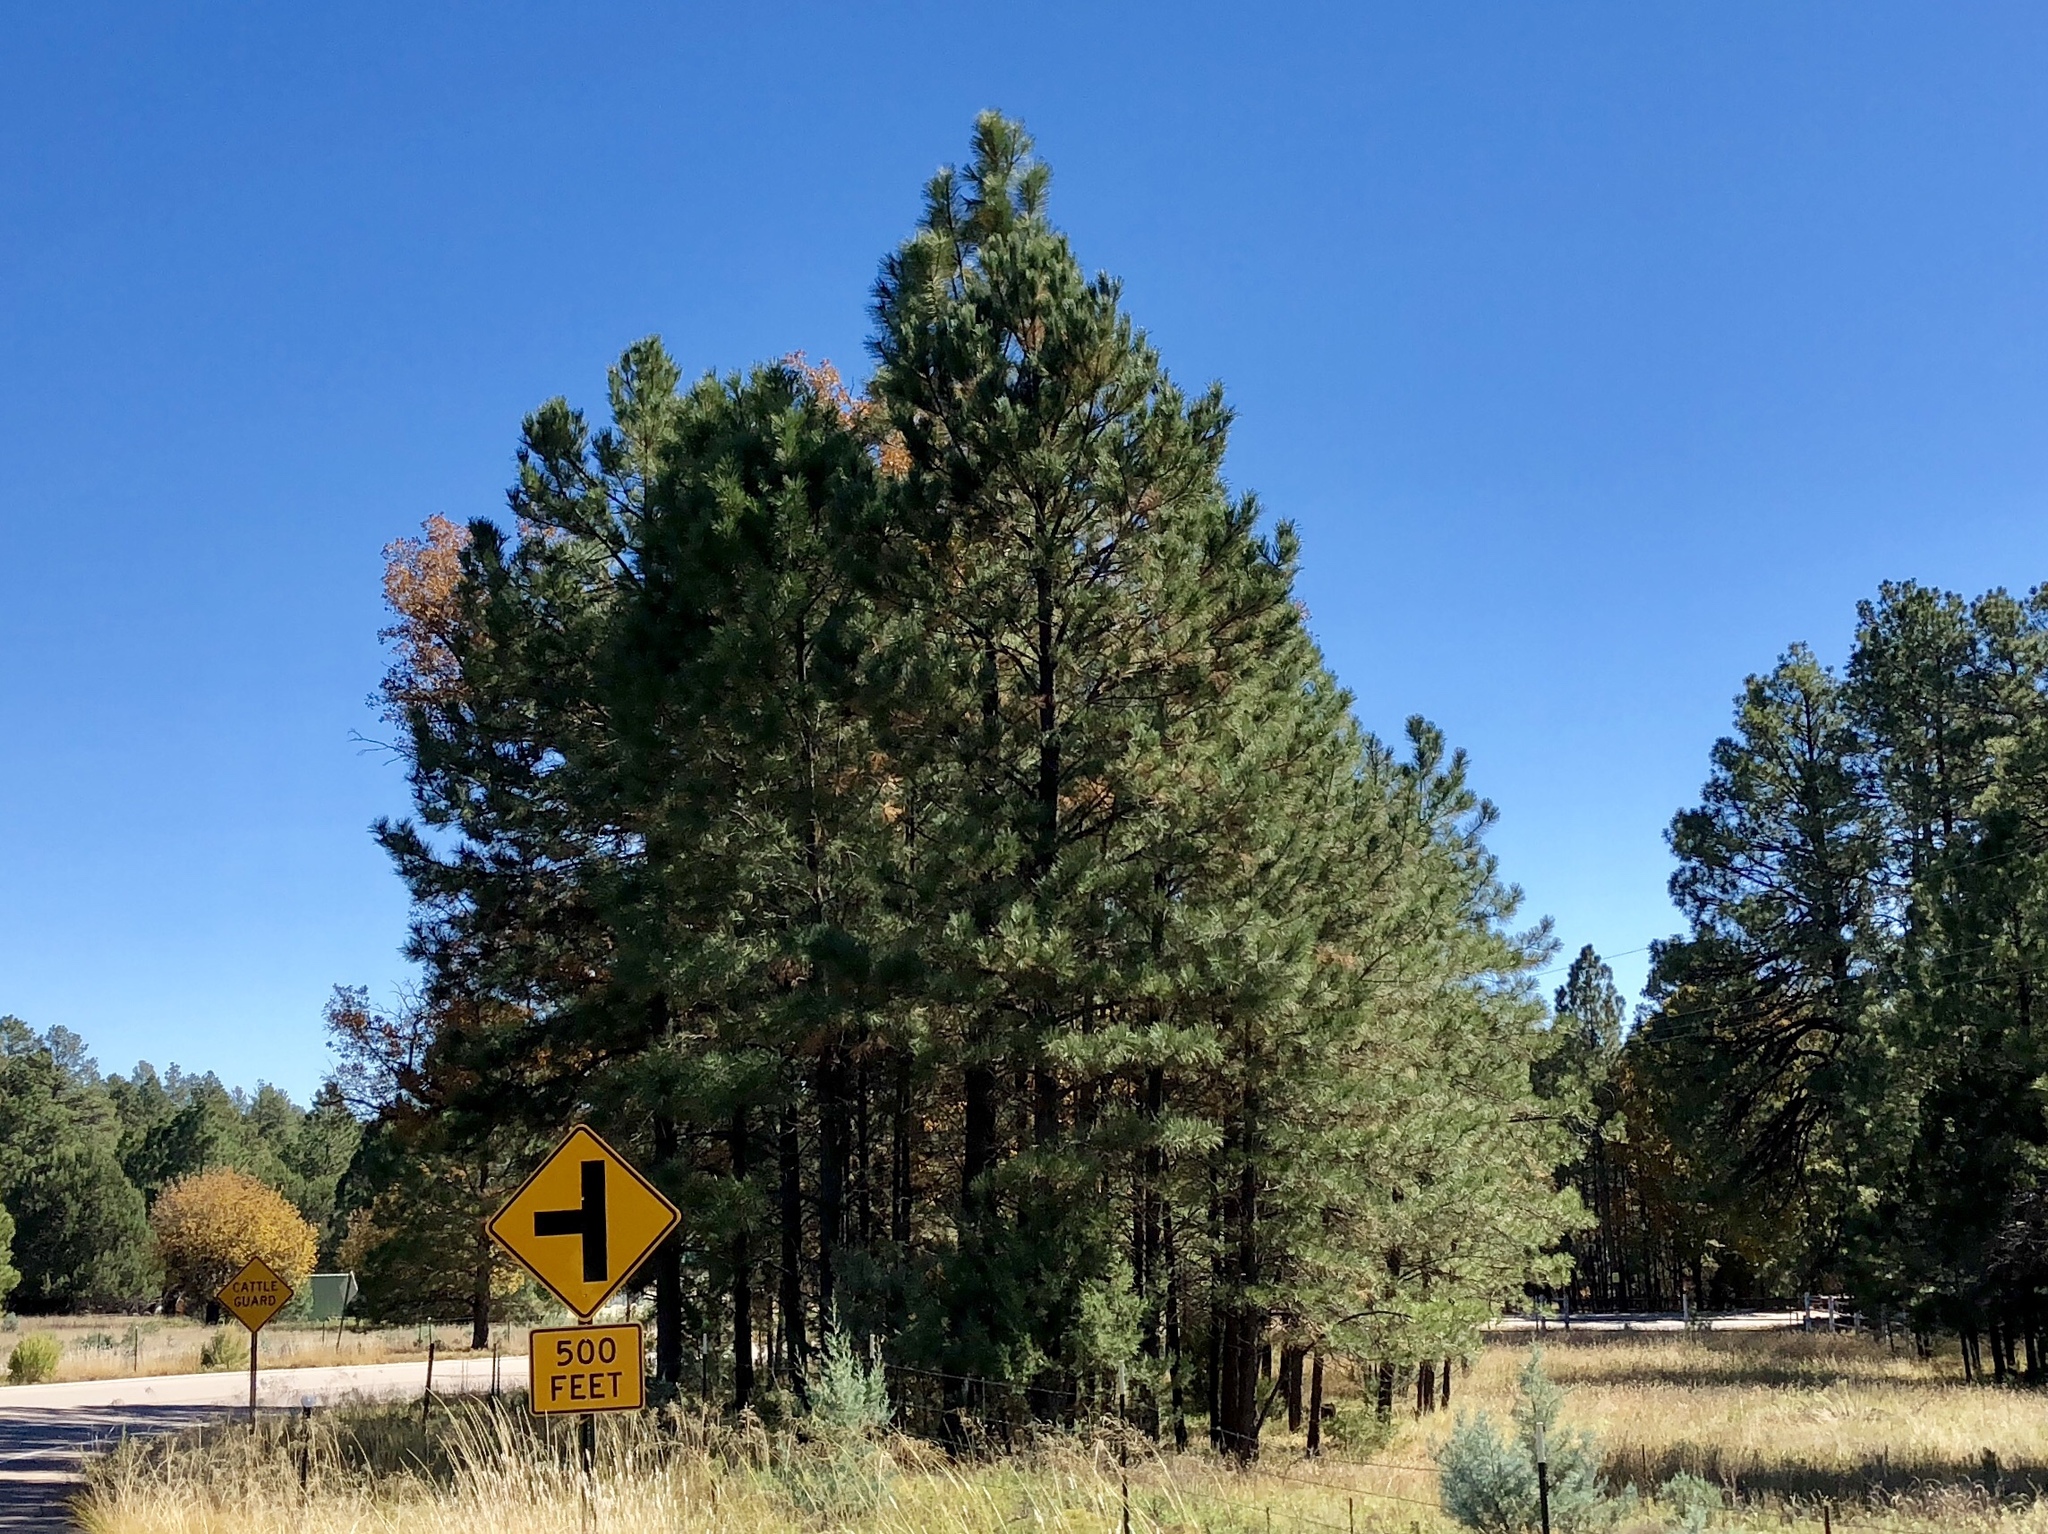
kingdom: Plantae
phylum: Tracheophyta
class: Pinopsida
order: Pinales
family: Pinaceae
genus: Pinus
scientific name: Pinus ponderosa
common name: Western yellow-pine
